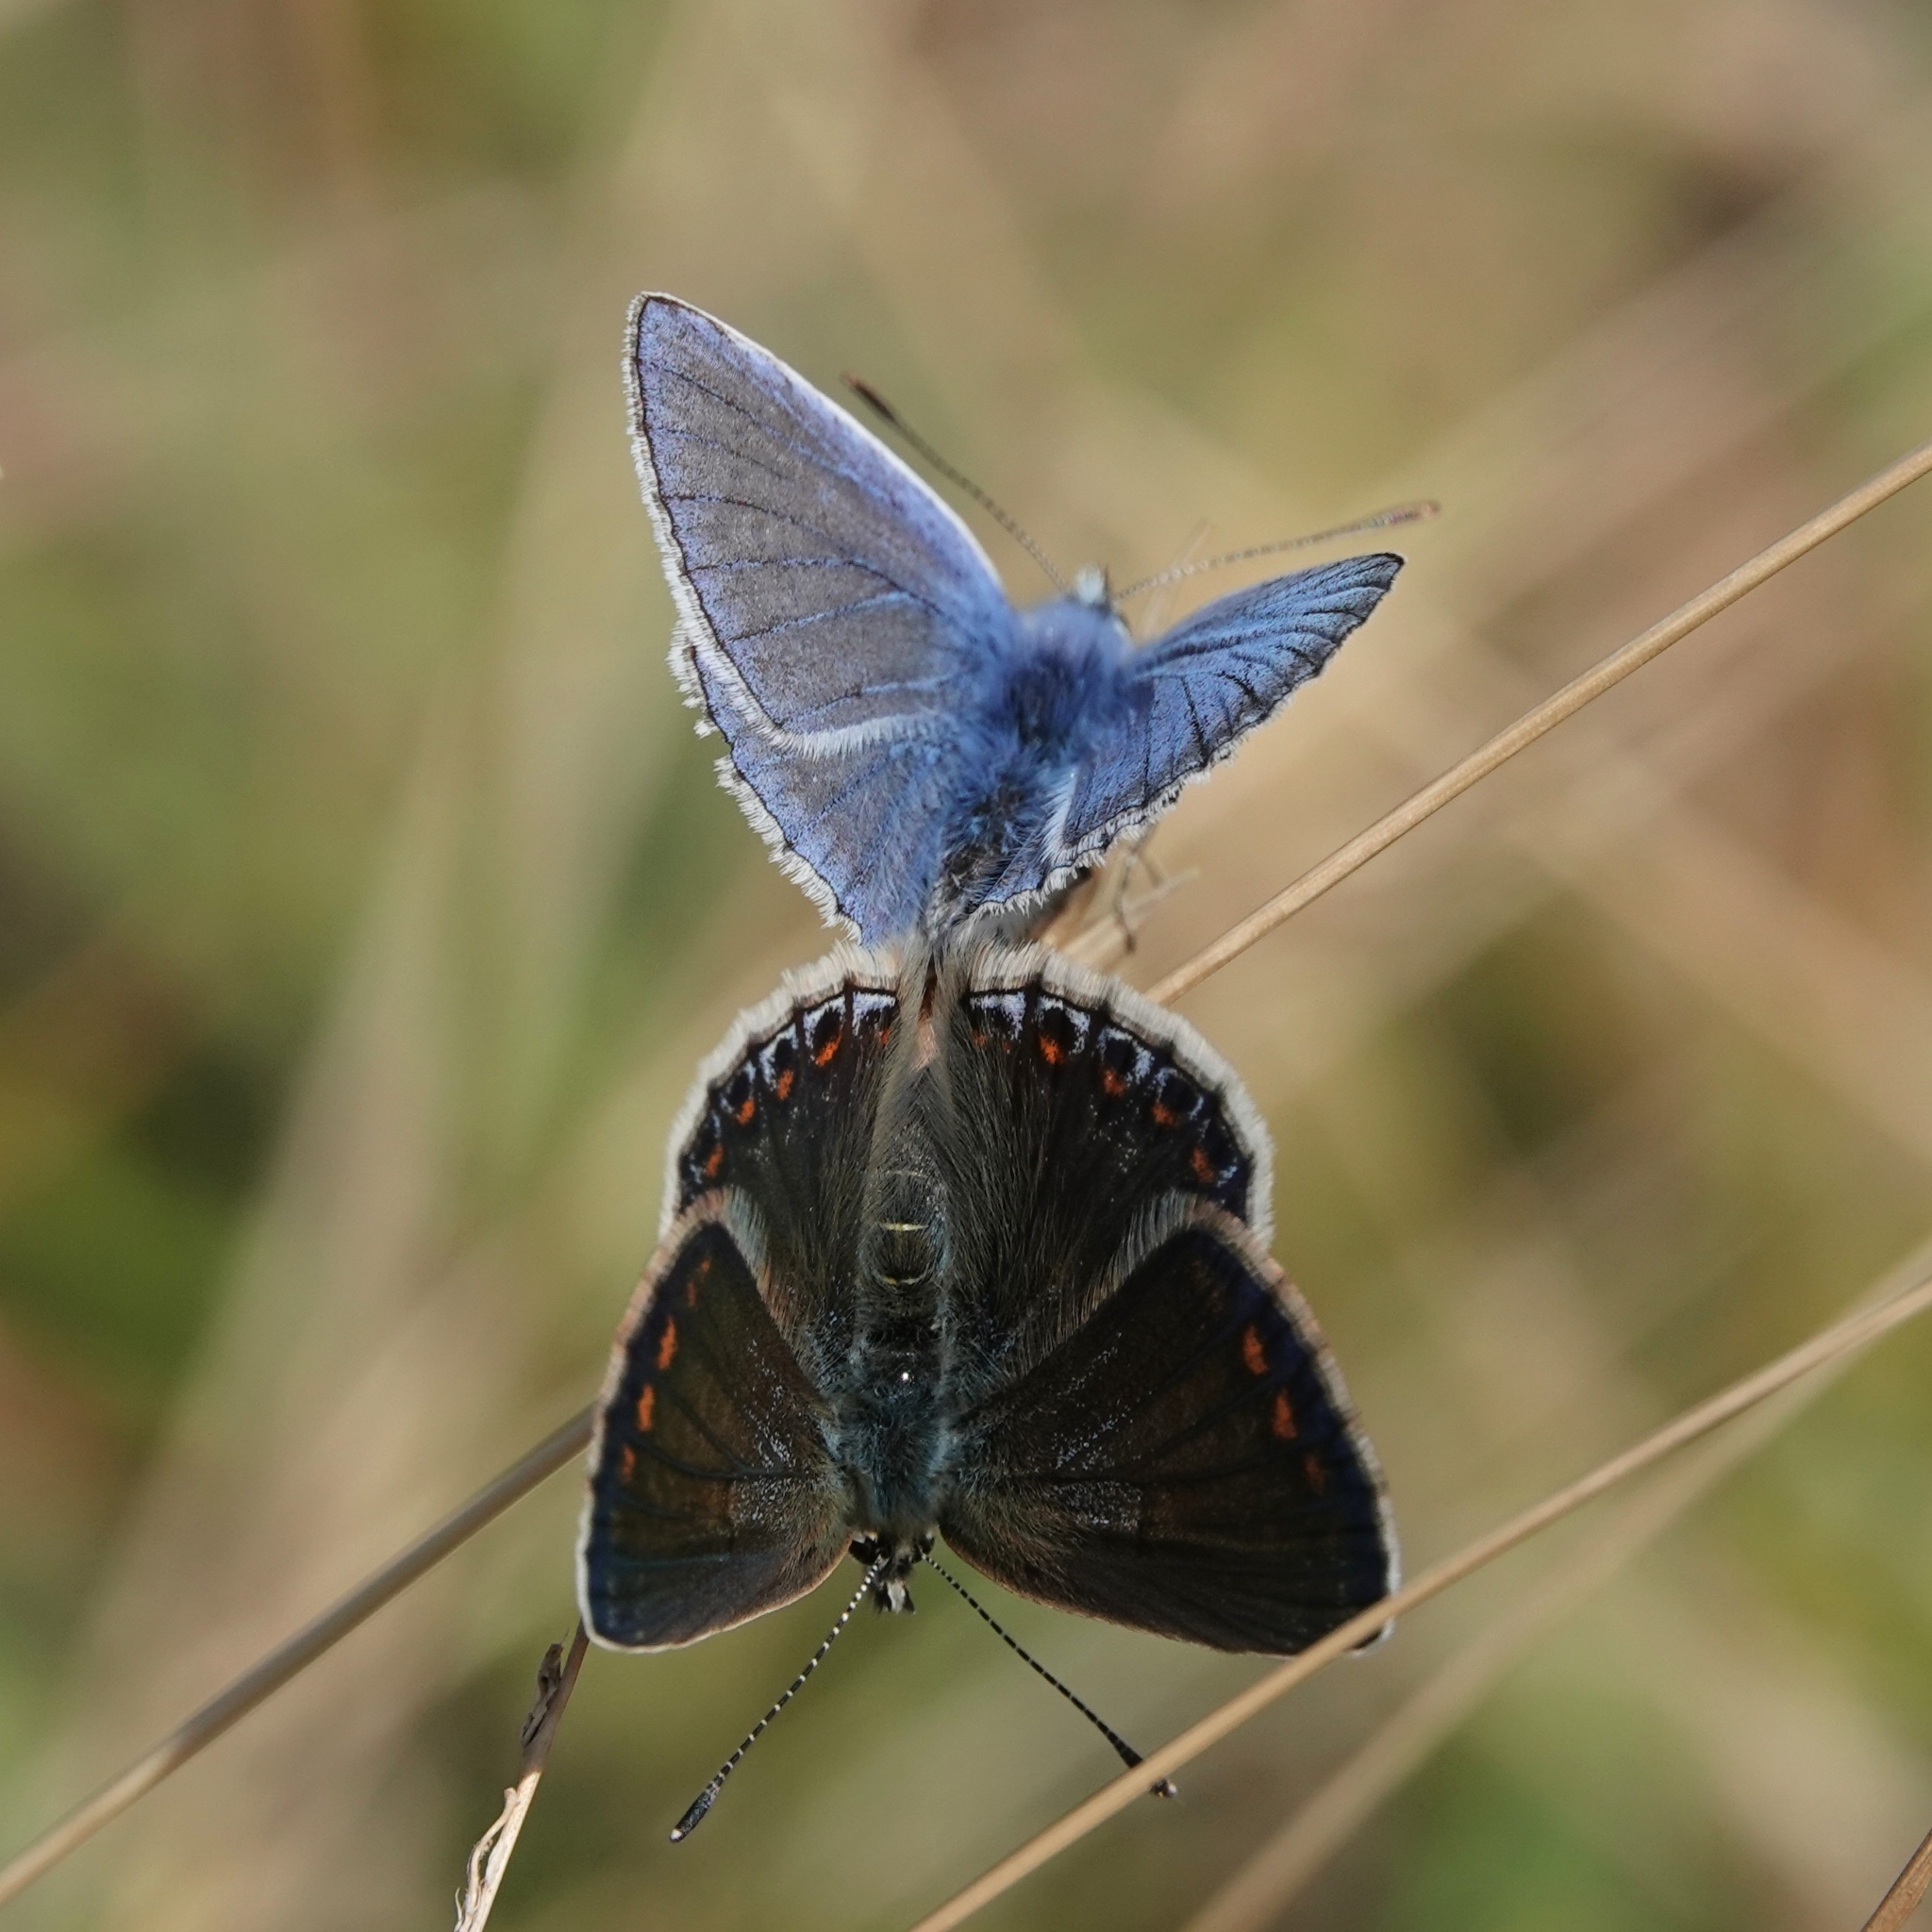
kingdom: Animalia
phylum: Arthropoda
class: Insecta
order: Lepidoptera
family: Lycaenidae
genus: Polyommatus
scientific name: Polyommatus icarus
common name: Common blue
